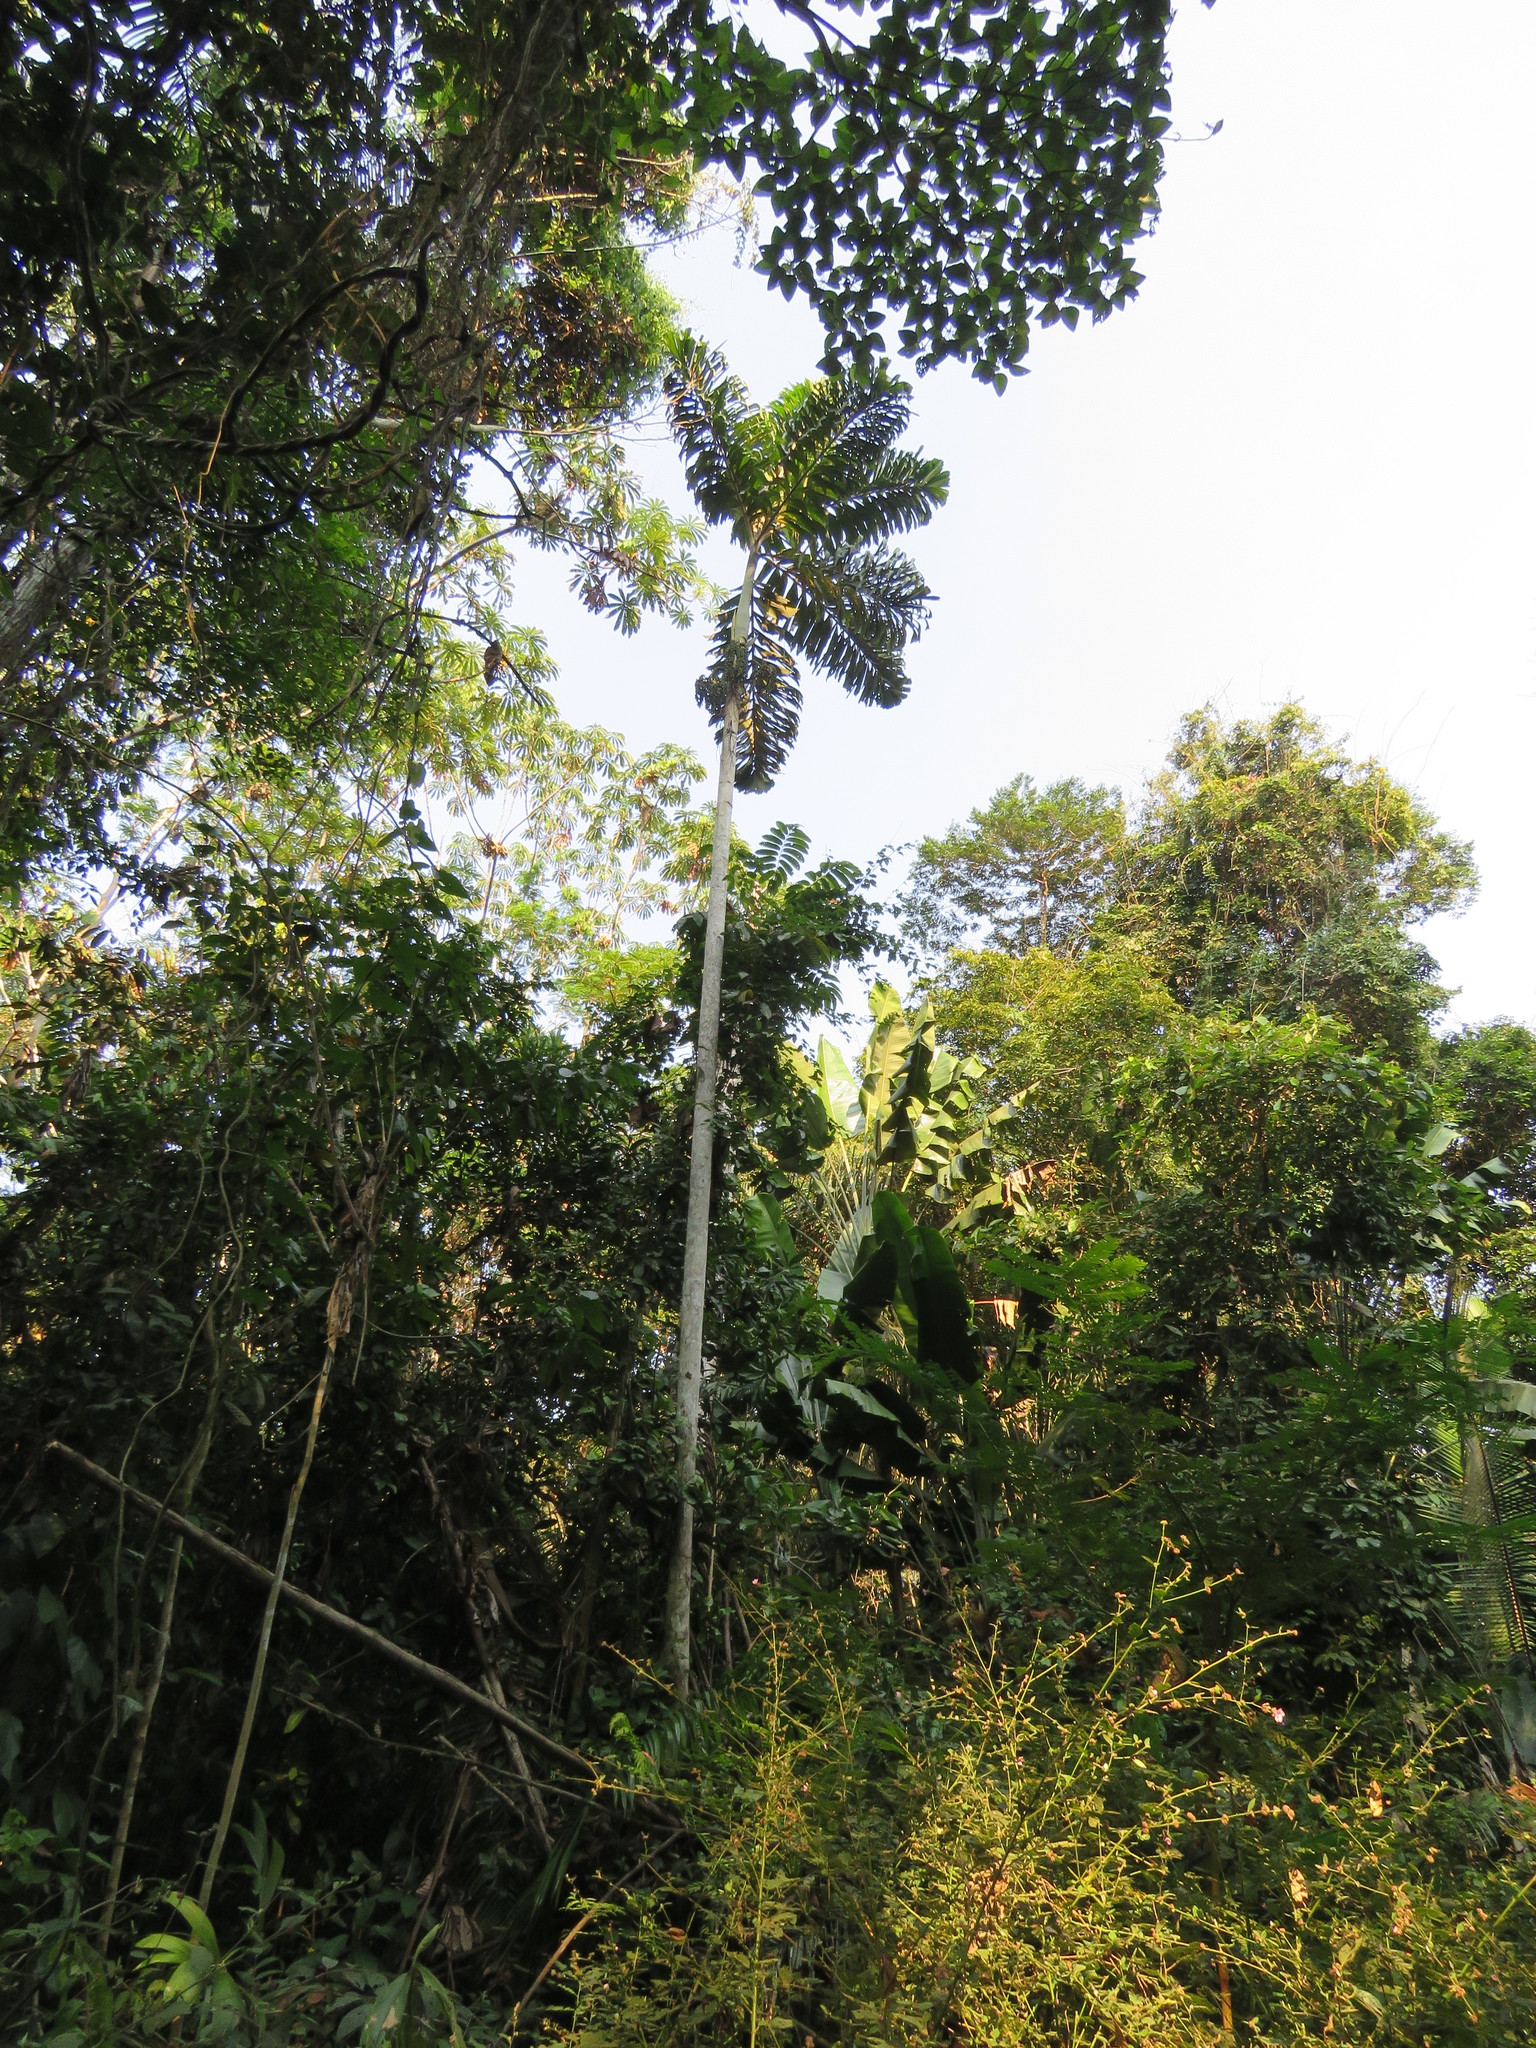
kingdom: Plantae
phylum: Tracheophyta
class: Liliopsida
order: Arecales
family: Arecaceae
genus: Socratea
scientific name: Socratea exorrhiza
